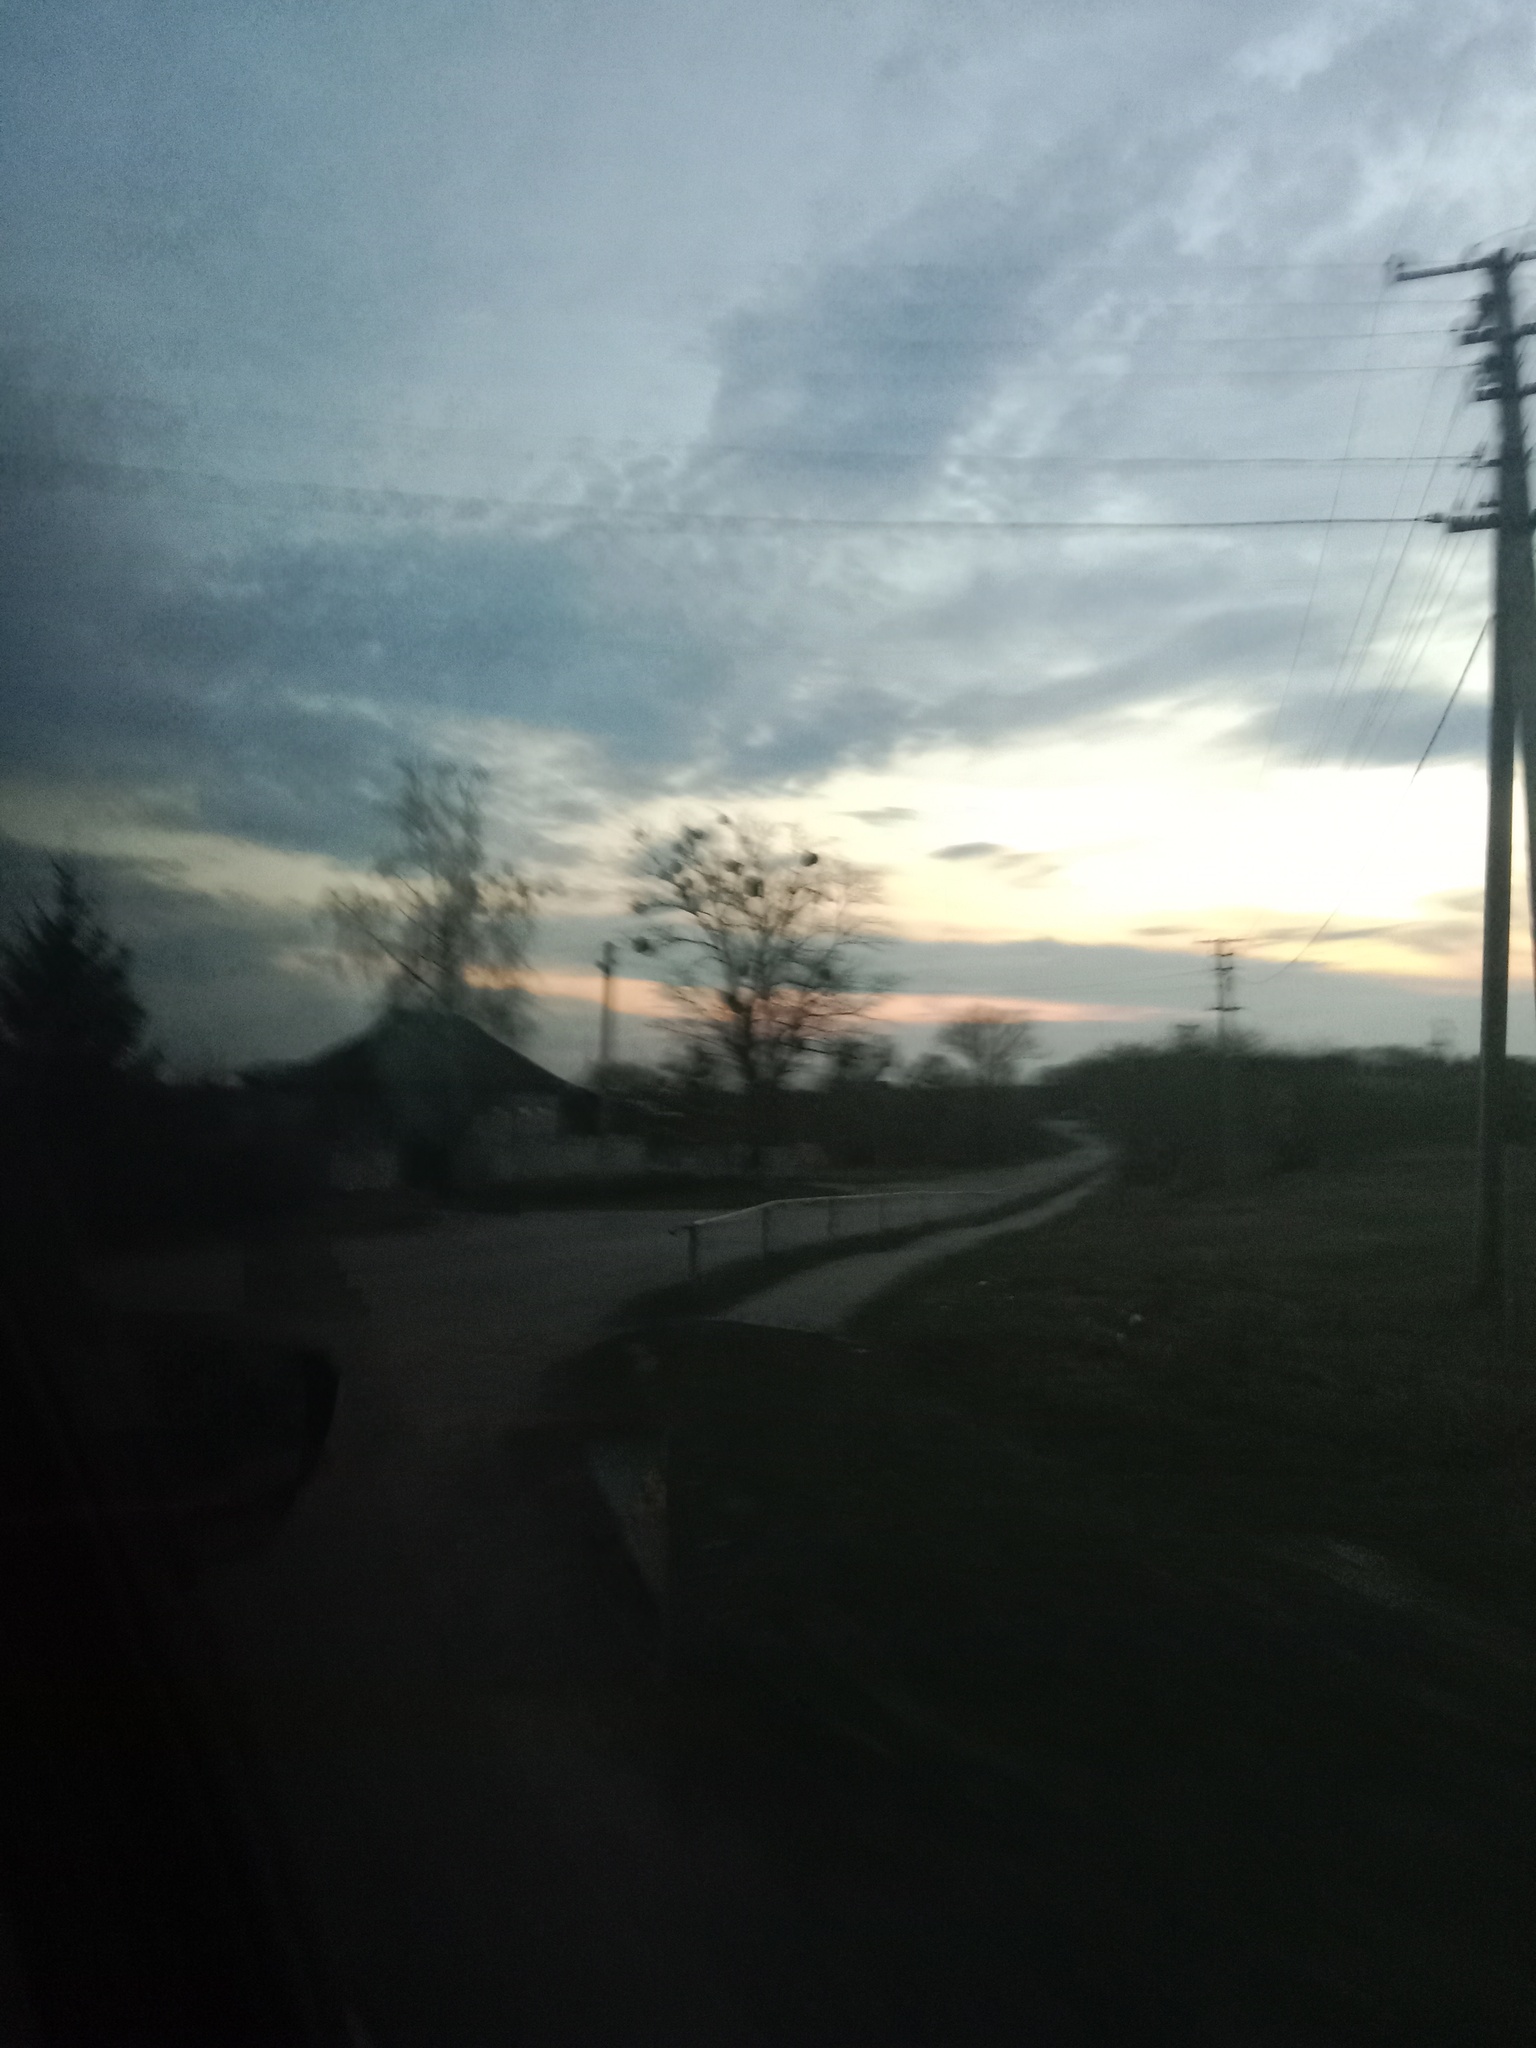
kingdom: Plantae
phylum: Tracheophyta
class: Magnoliopsida
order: Santalales
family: Viscaceae
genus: Viscum
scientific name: Viscum album
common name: Mistletoe
